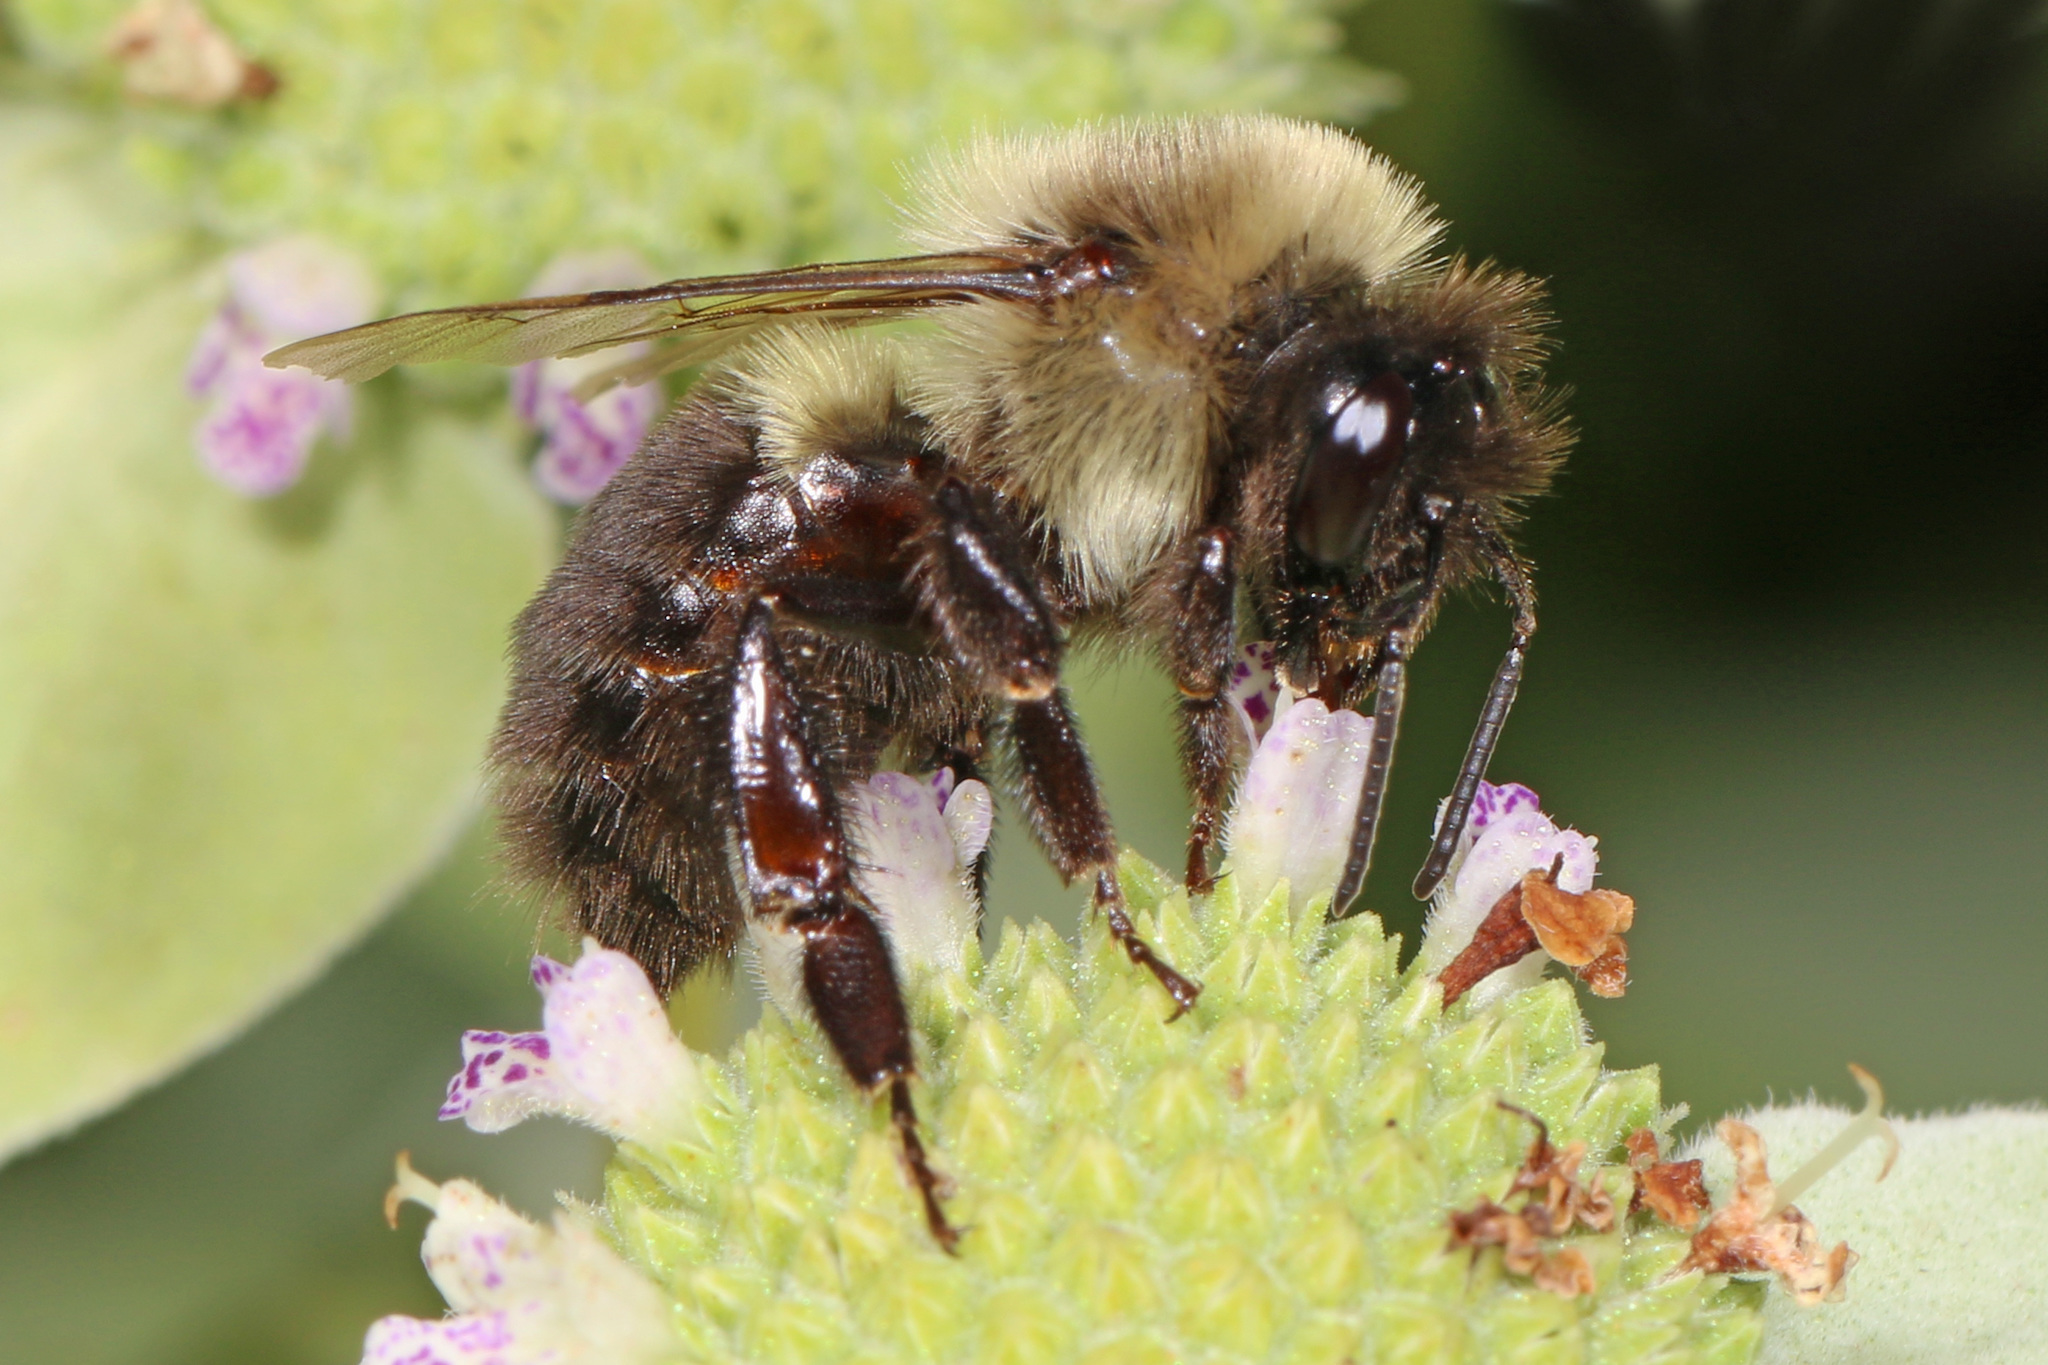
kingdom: Animalia
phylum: Arthropoda
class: Insecta
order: Hymenoptera
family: Apidae
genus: Bombus
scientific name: Bombus impatiens
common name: Common eastern bumble bee
